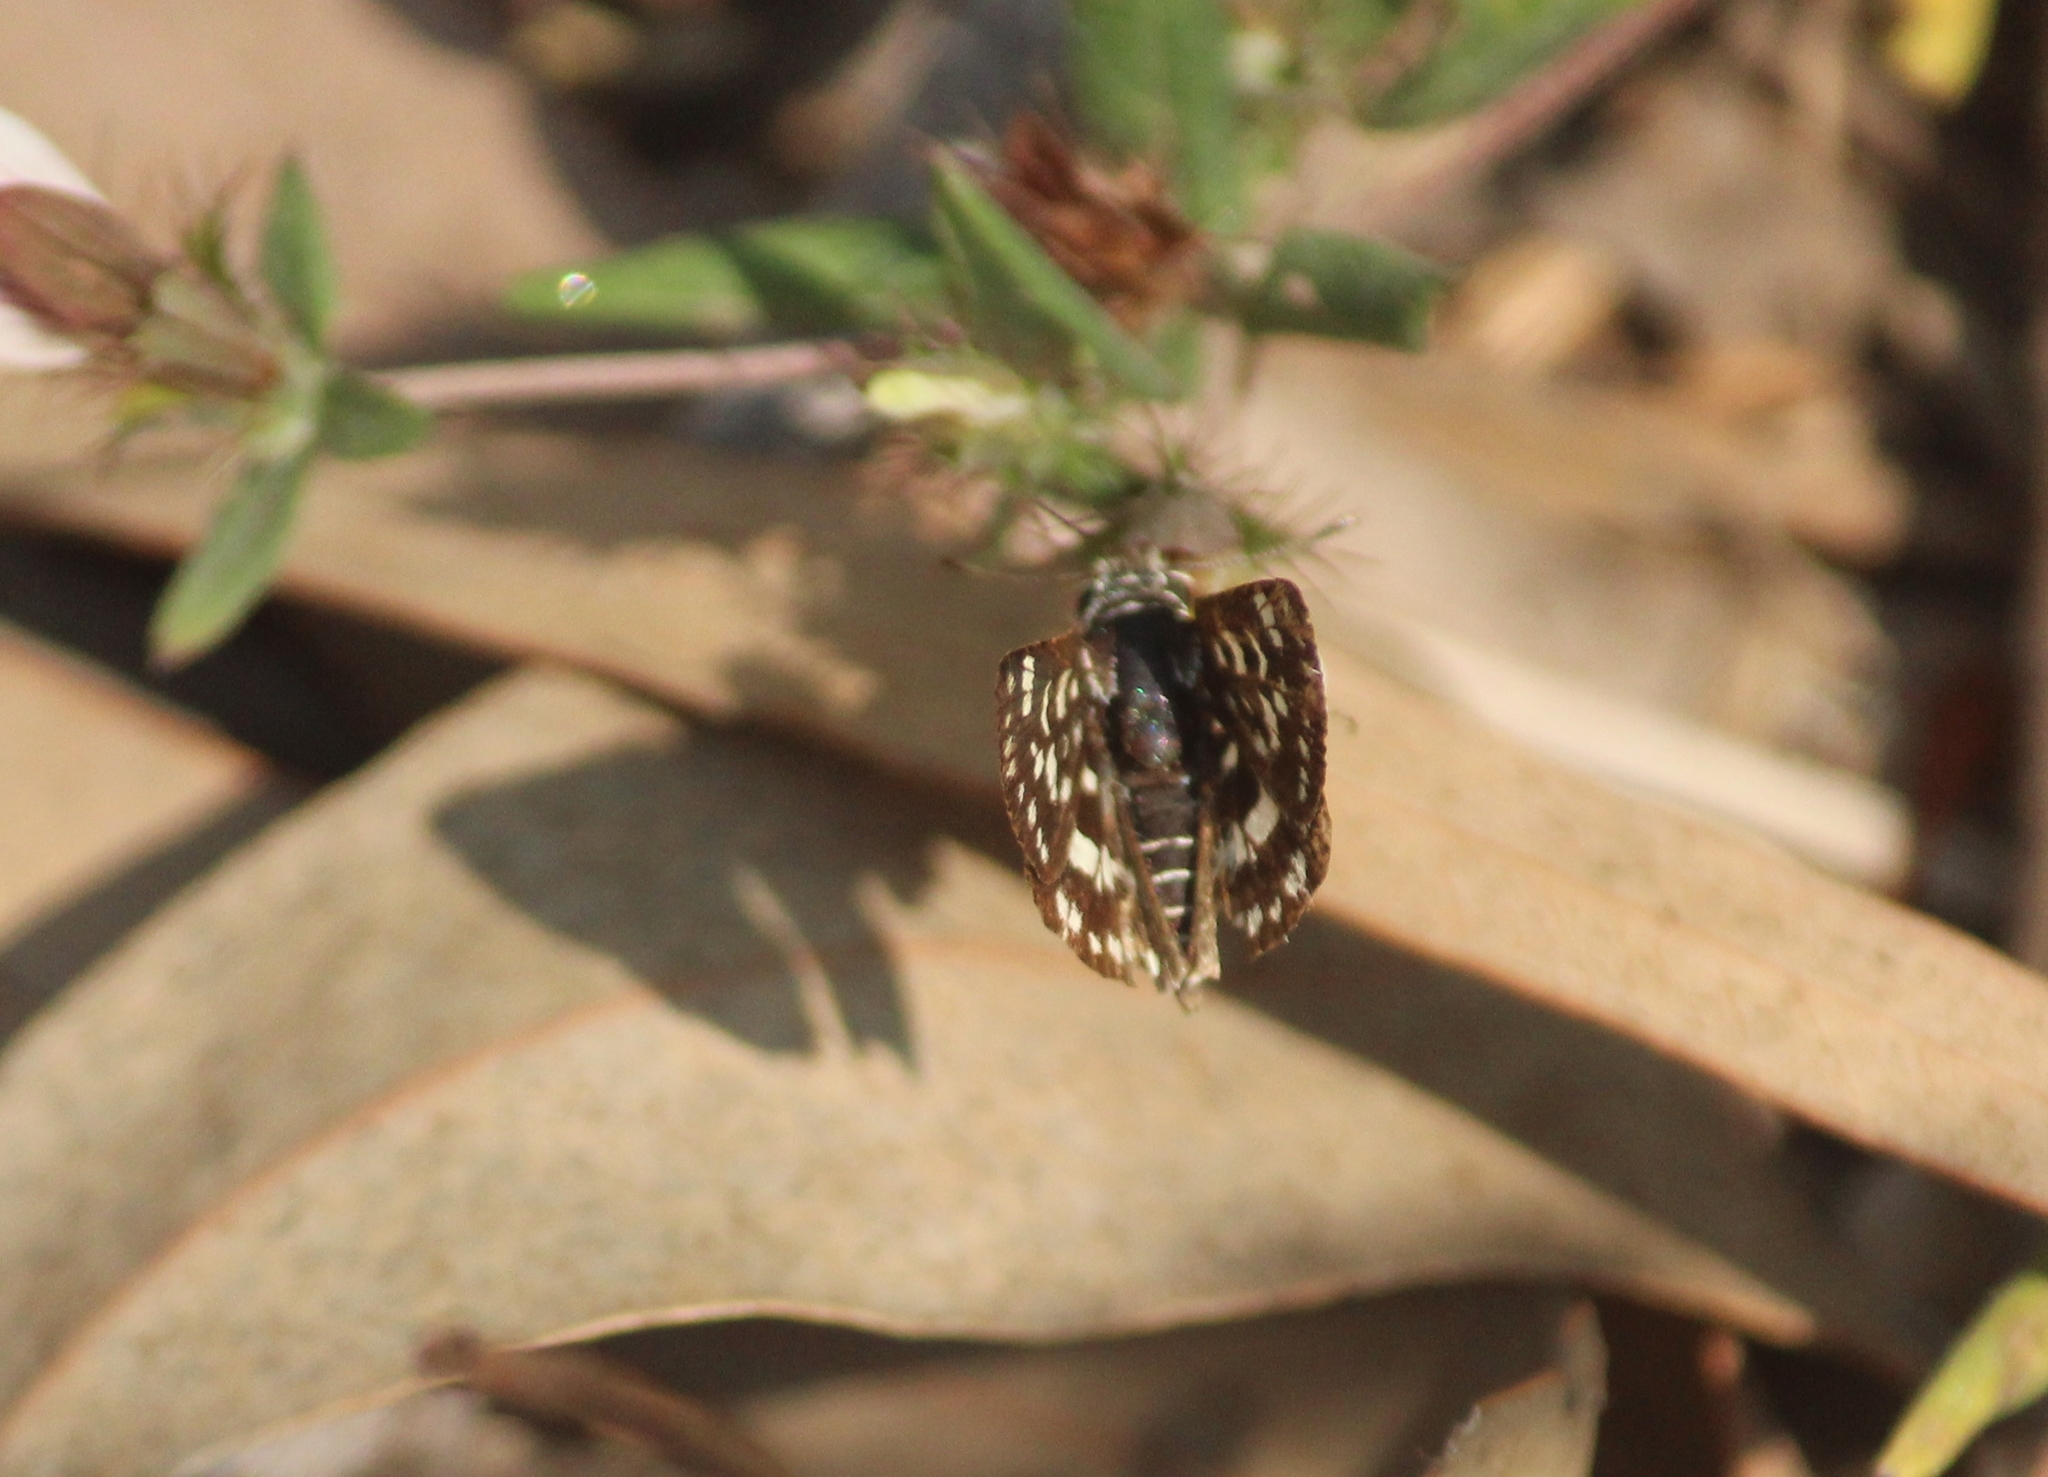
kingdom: Animalia
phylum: Arthropoda
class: Insecta
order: Lepidoptera
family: Hesperiidae
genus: Spialia
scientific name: Spialia galba
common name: Indian skipper
